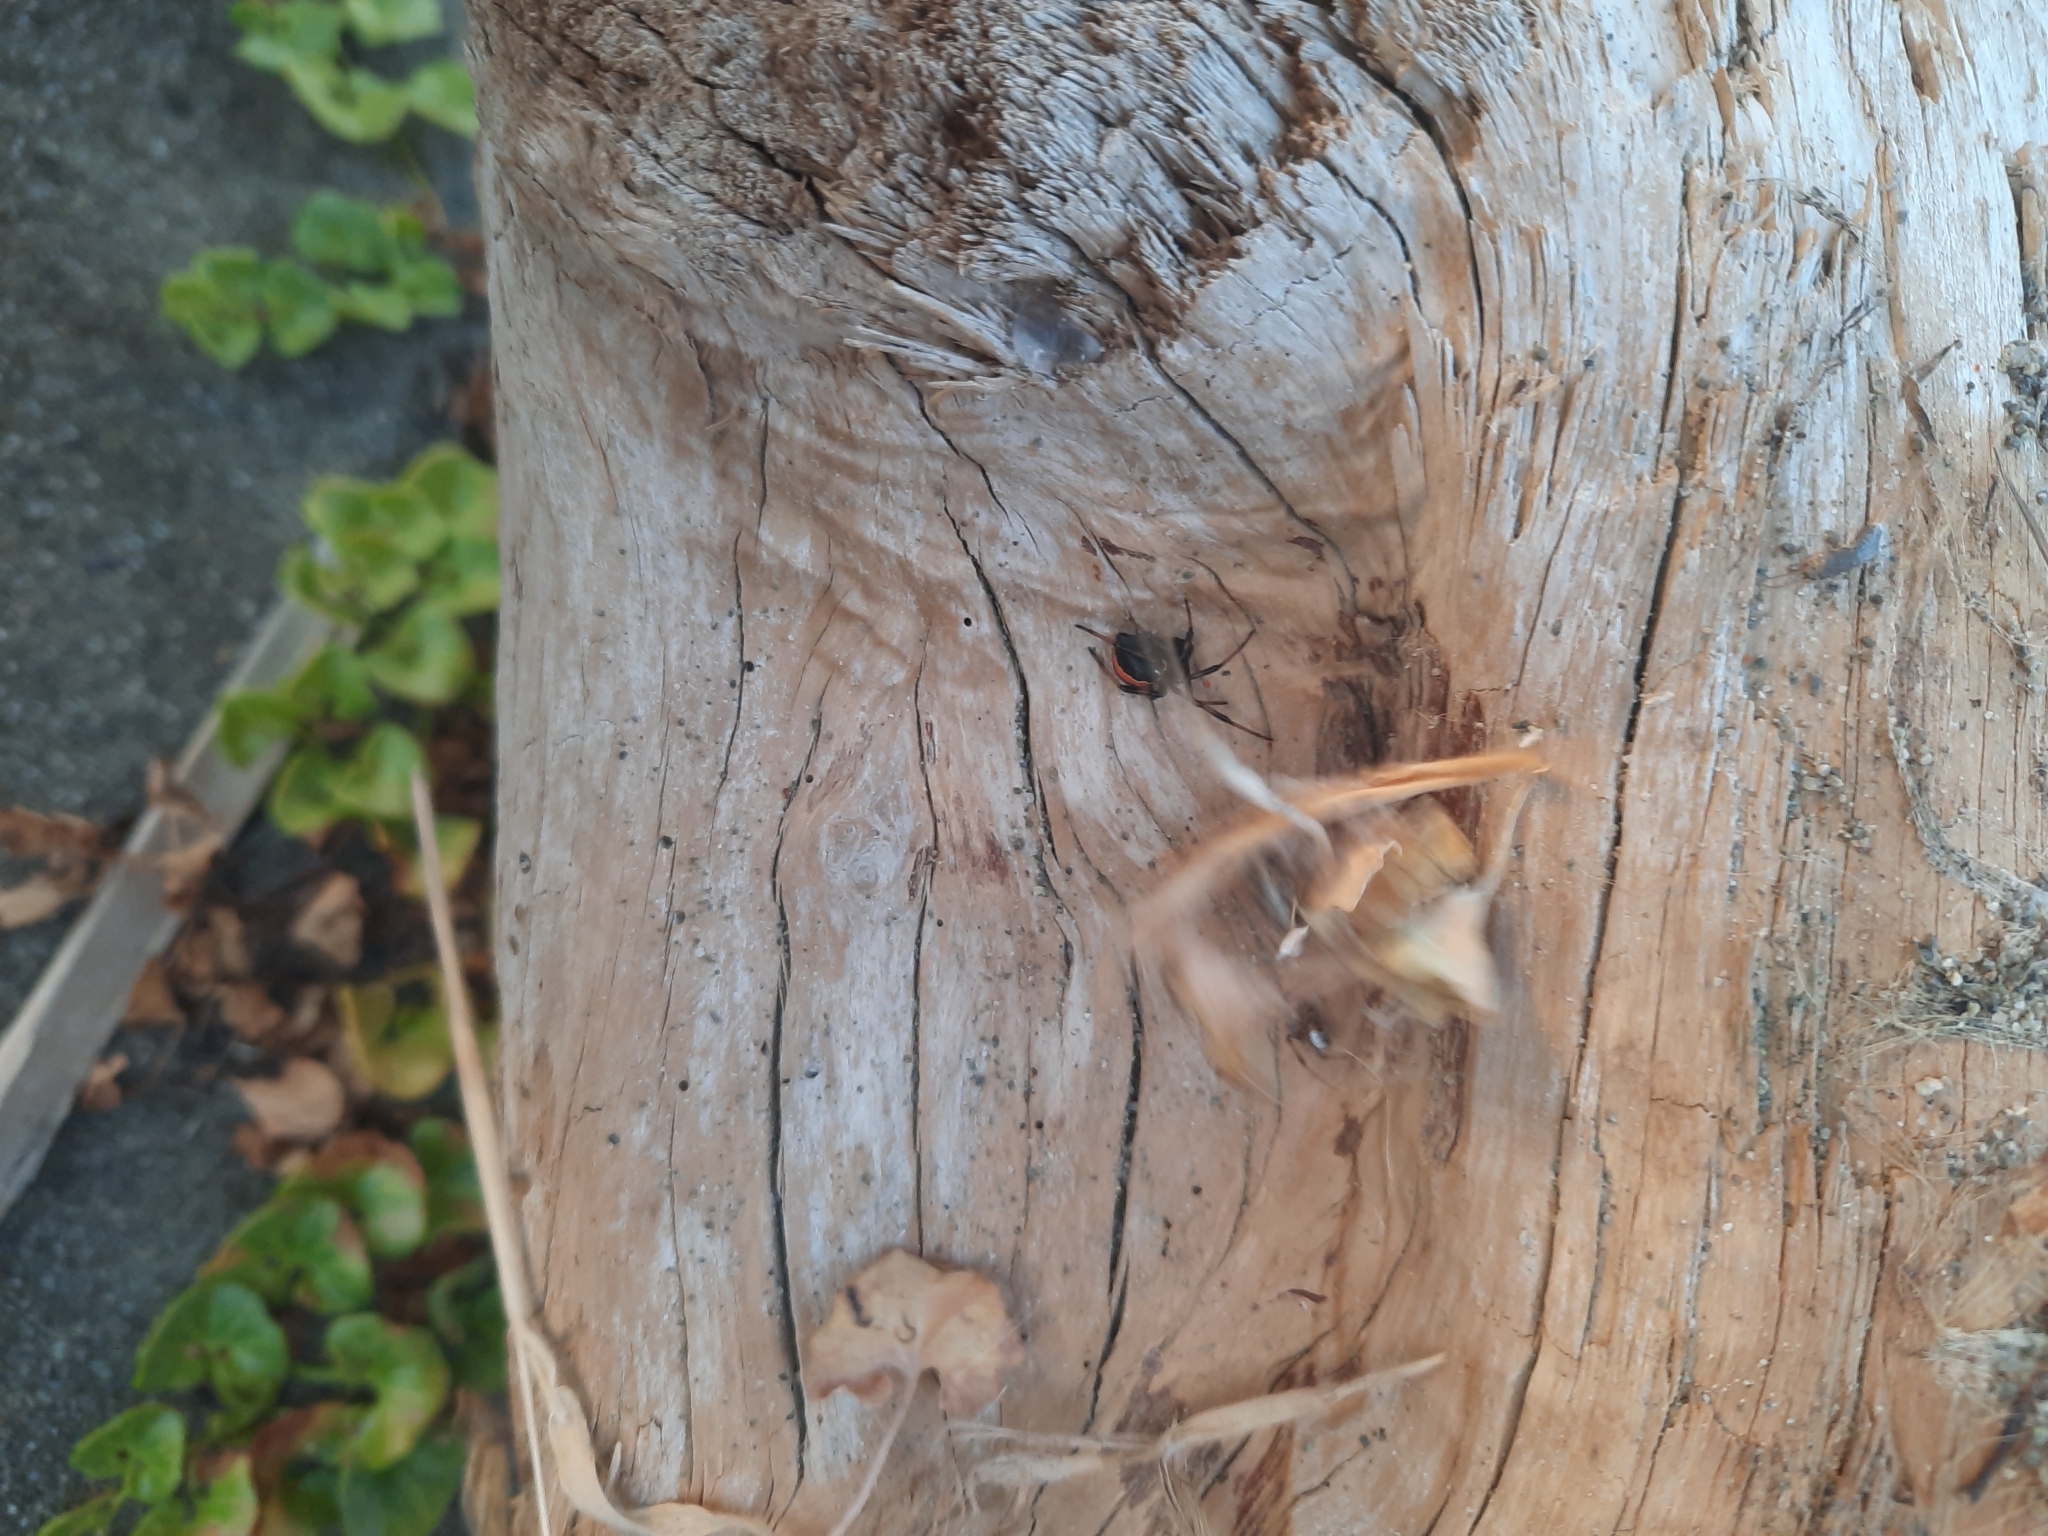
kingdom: Animalia
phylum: Arthropoda
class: Arachnida
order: Araneae
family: Theridiidae
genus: Latrodectus
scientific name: Latrodectus katipo
